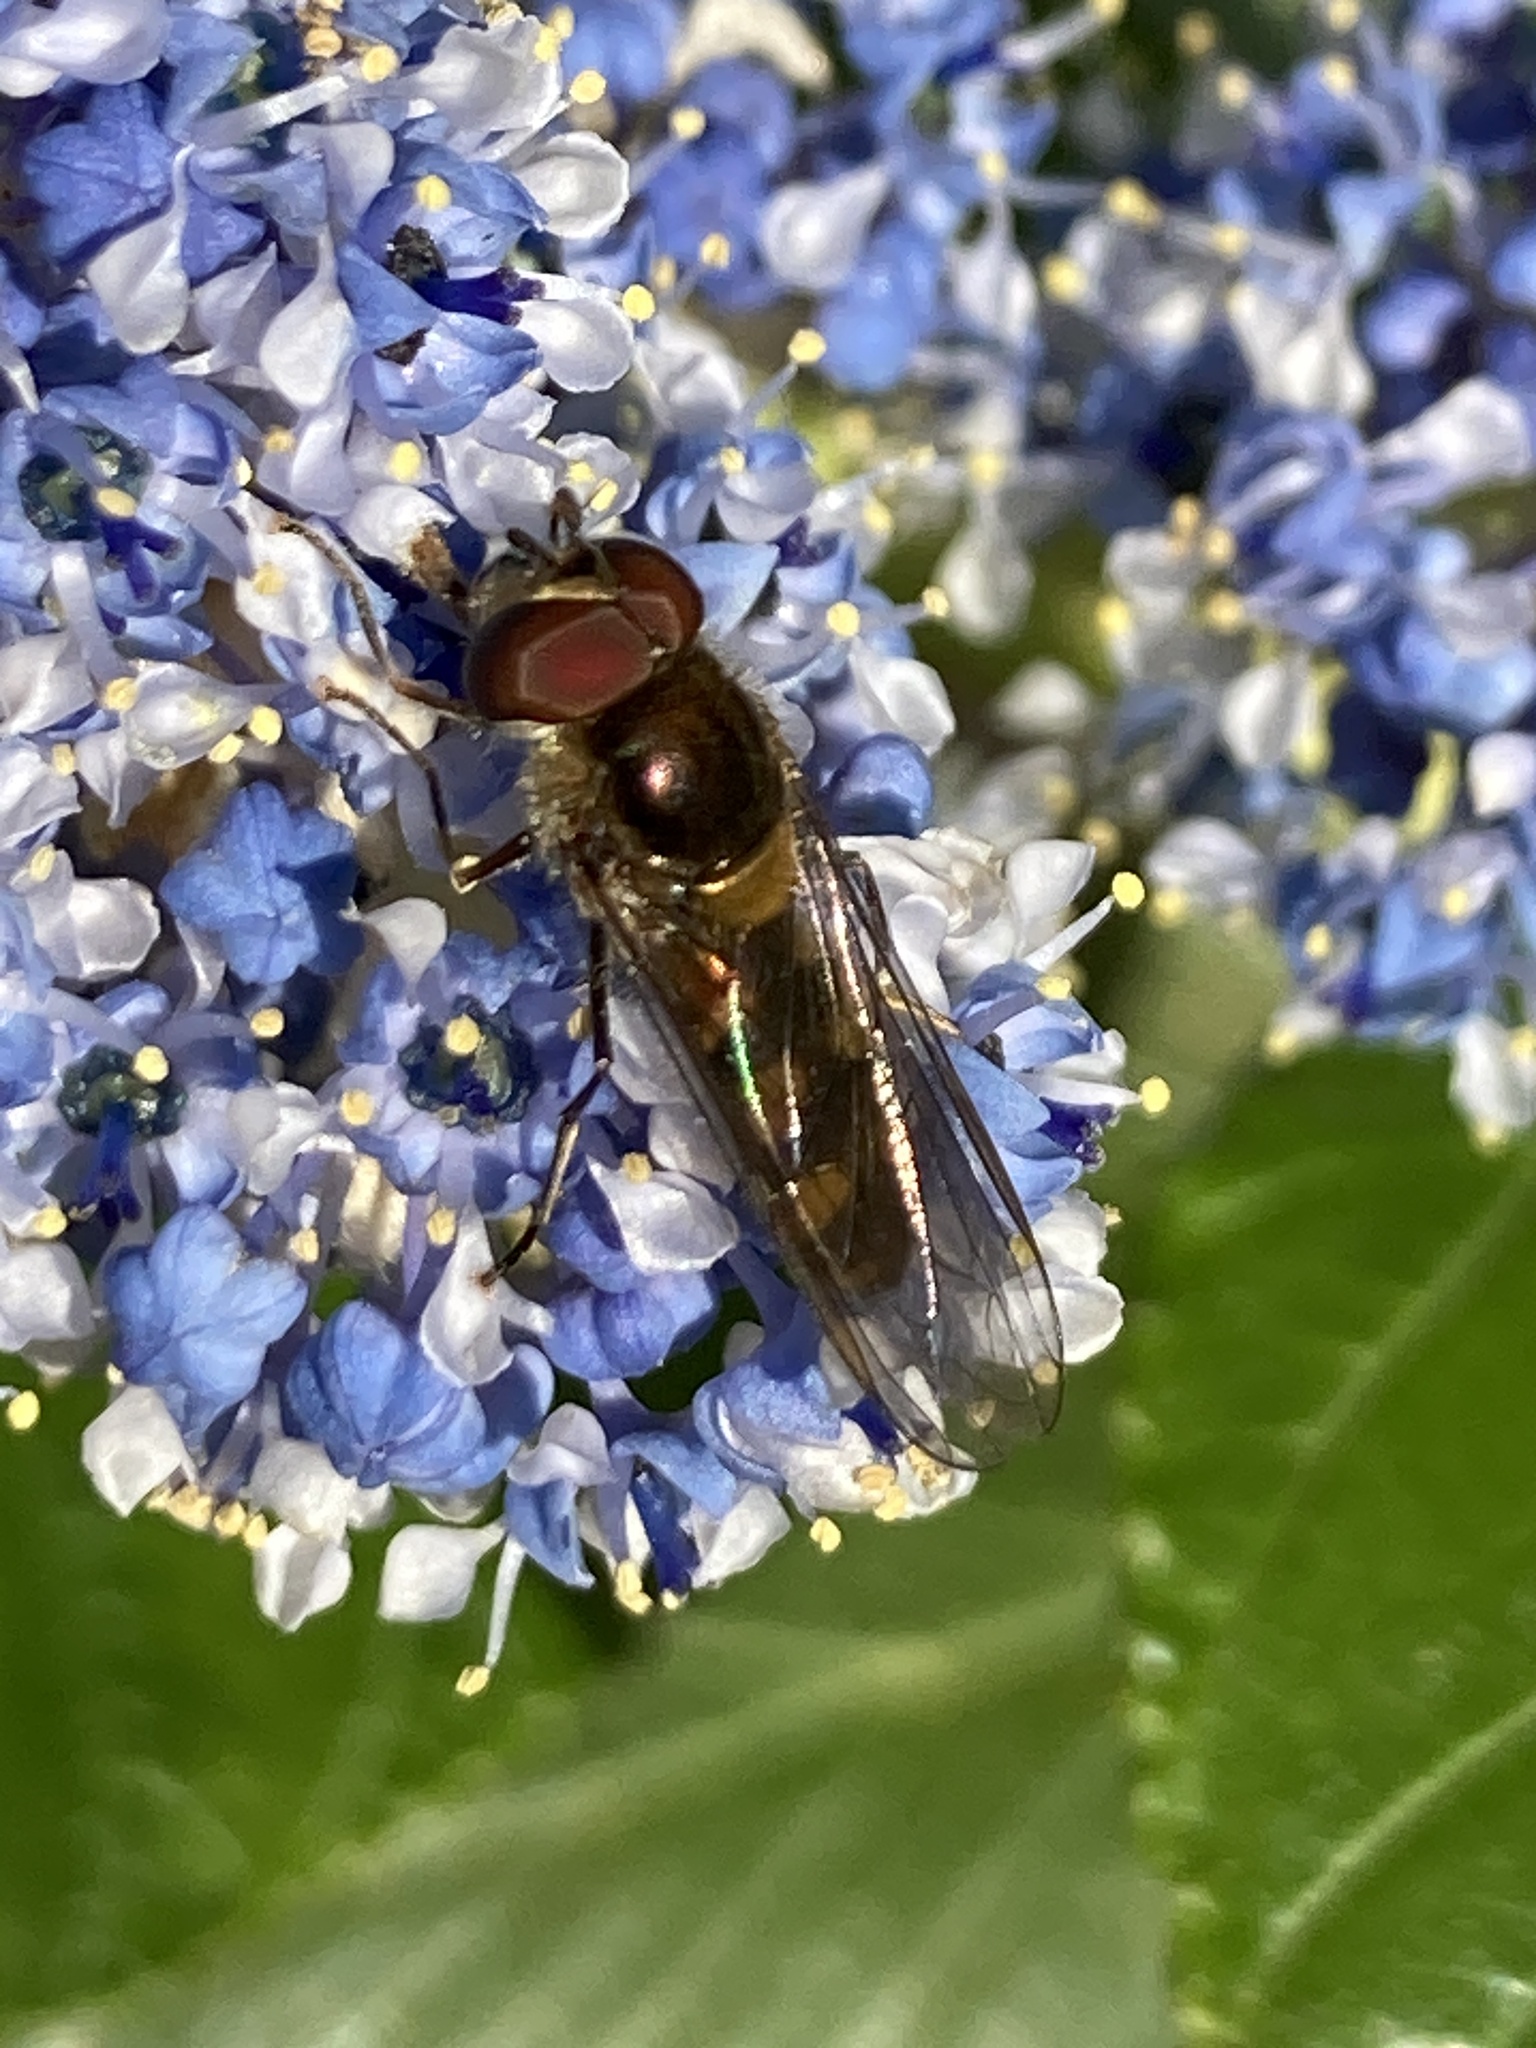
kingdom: Animalia
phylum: Arthropoda
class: Insecta
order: Diptera
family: Syrphidae
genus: Meliscaeva
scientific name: Meliscaeva auricollis
